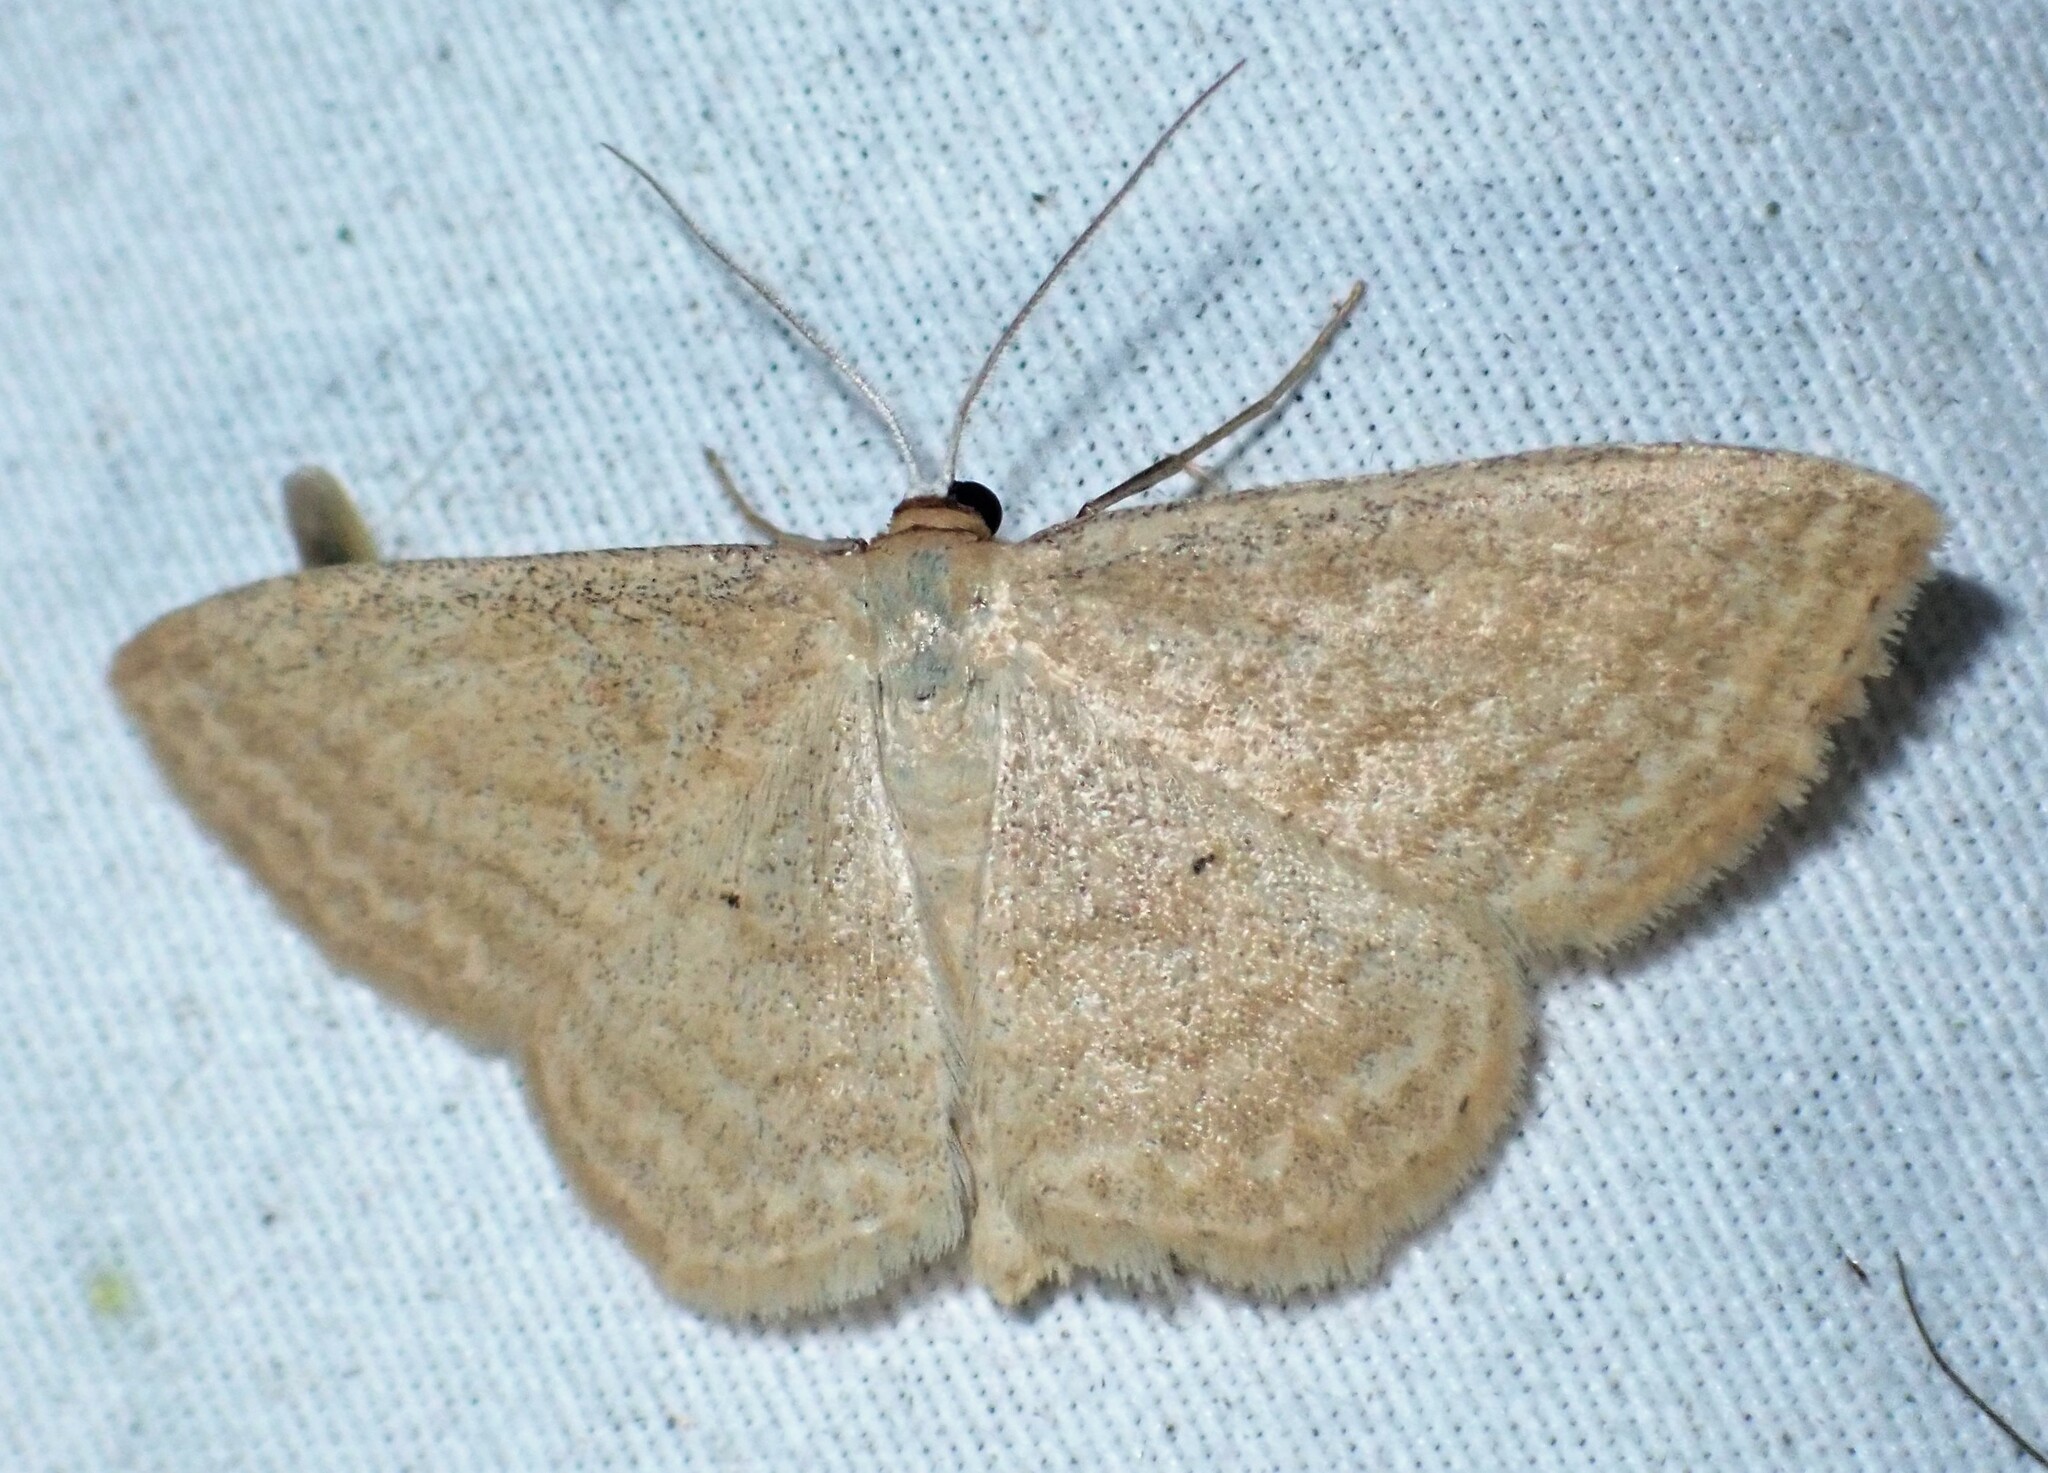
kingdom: Animalia
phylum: Arthropoda
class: Insecta
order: Lepidoptera
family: Geometridae
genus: Scopula
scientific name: Scopula inductata
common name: Soft-lined wave
